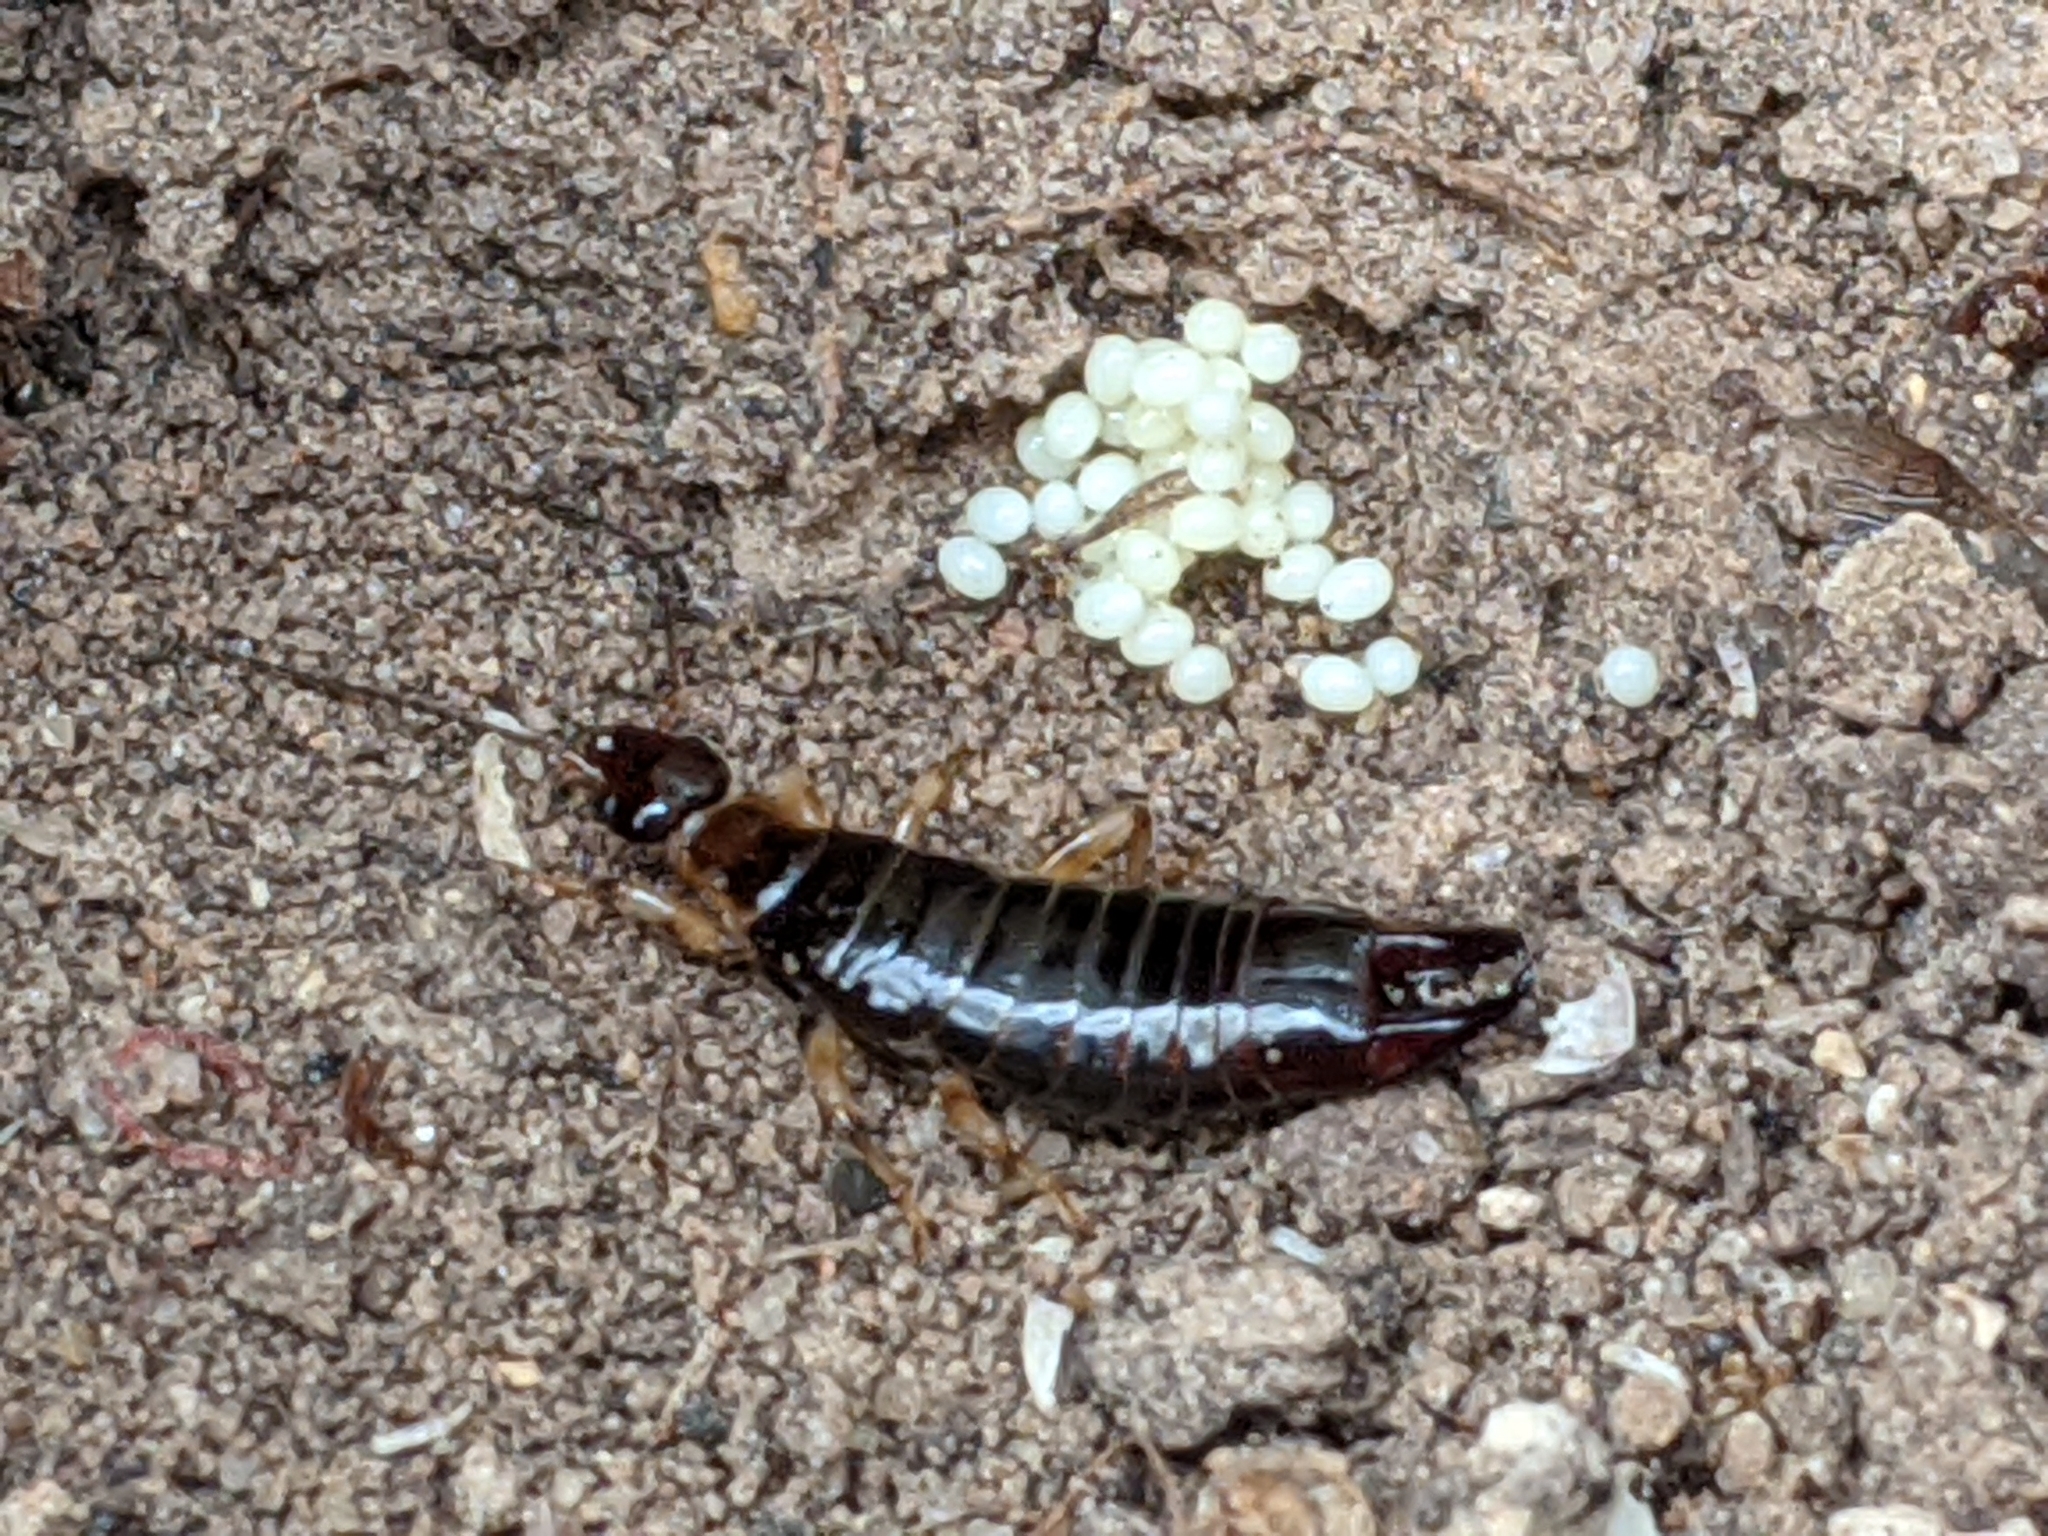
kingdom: Animalia
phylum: Arthropoda
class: Insecta
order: Dermaptera
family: Anisolabididae
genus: Euborellia
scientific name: Euborellia annulipes
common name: Ringlegged earwig
